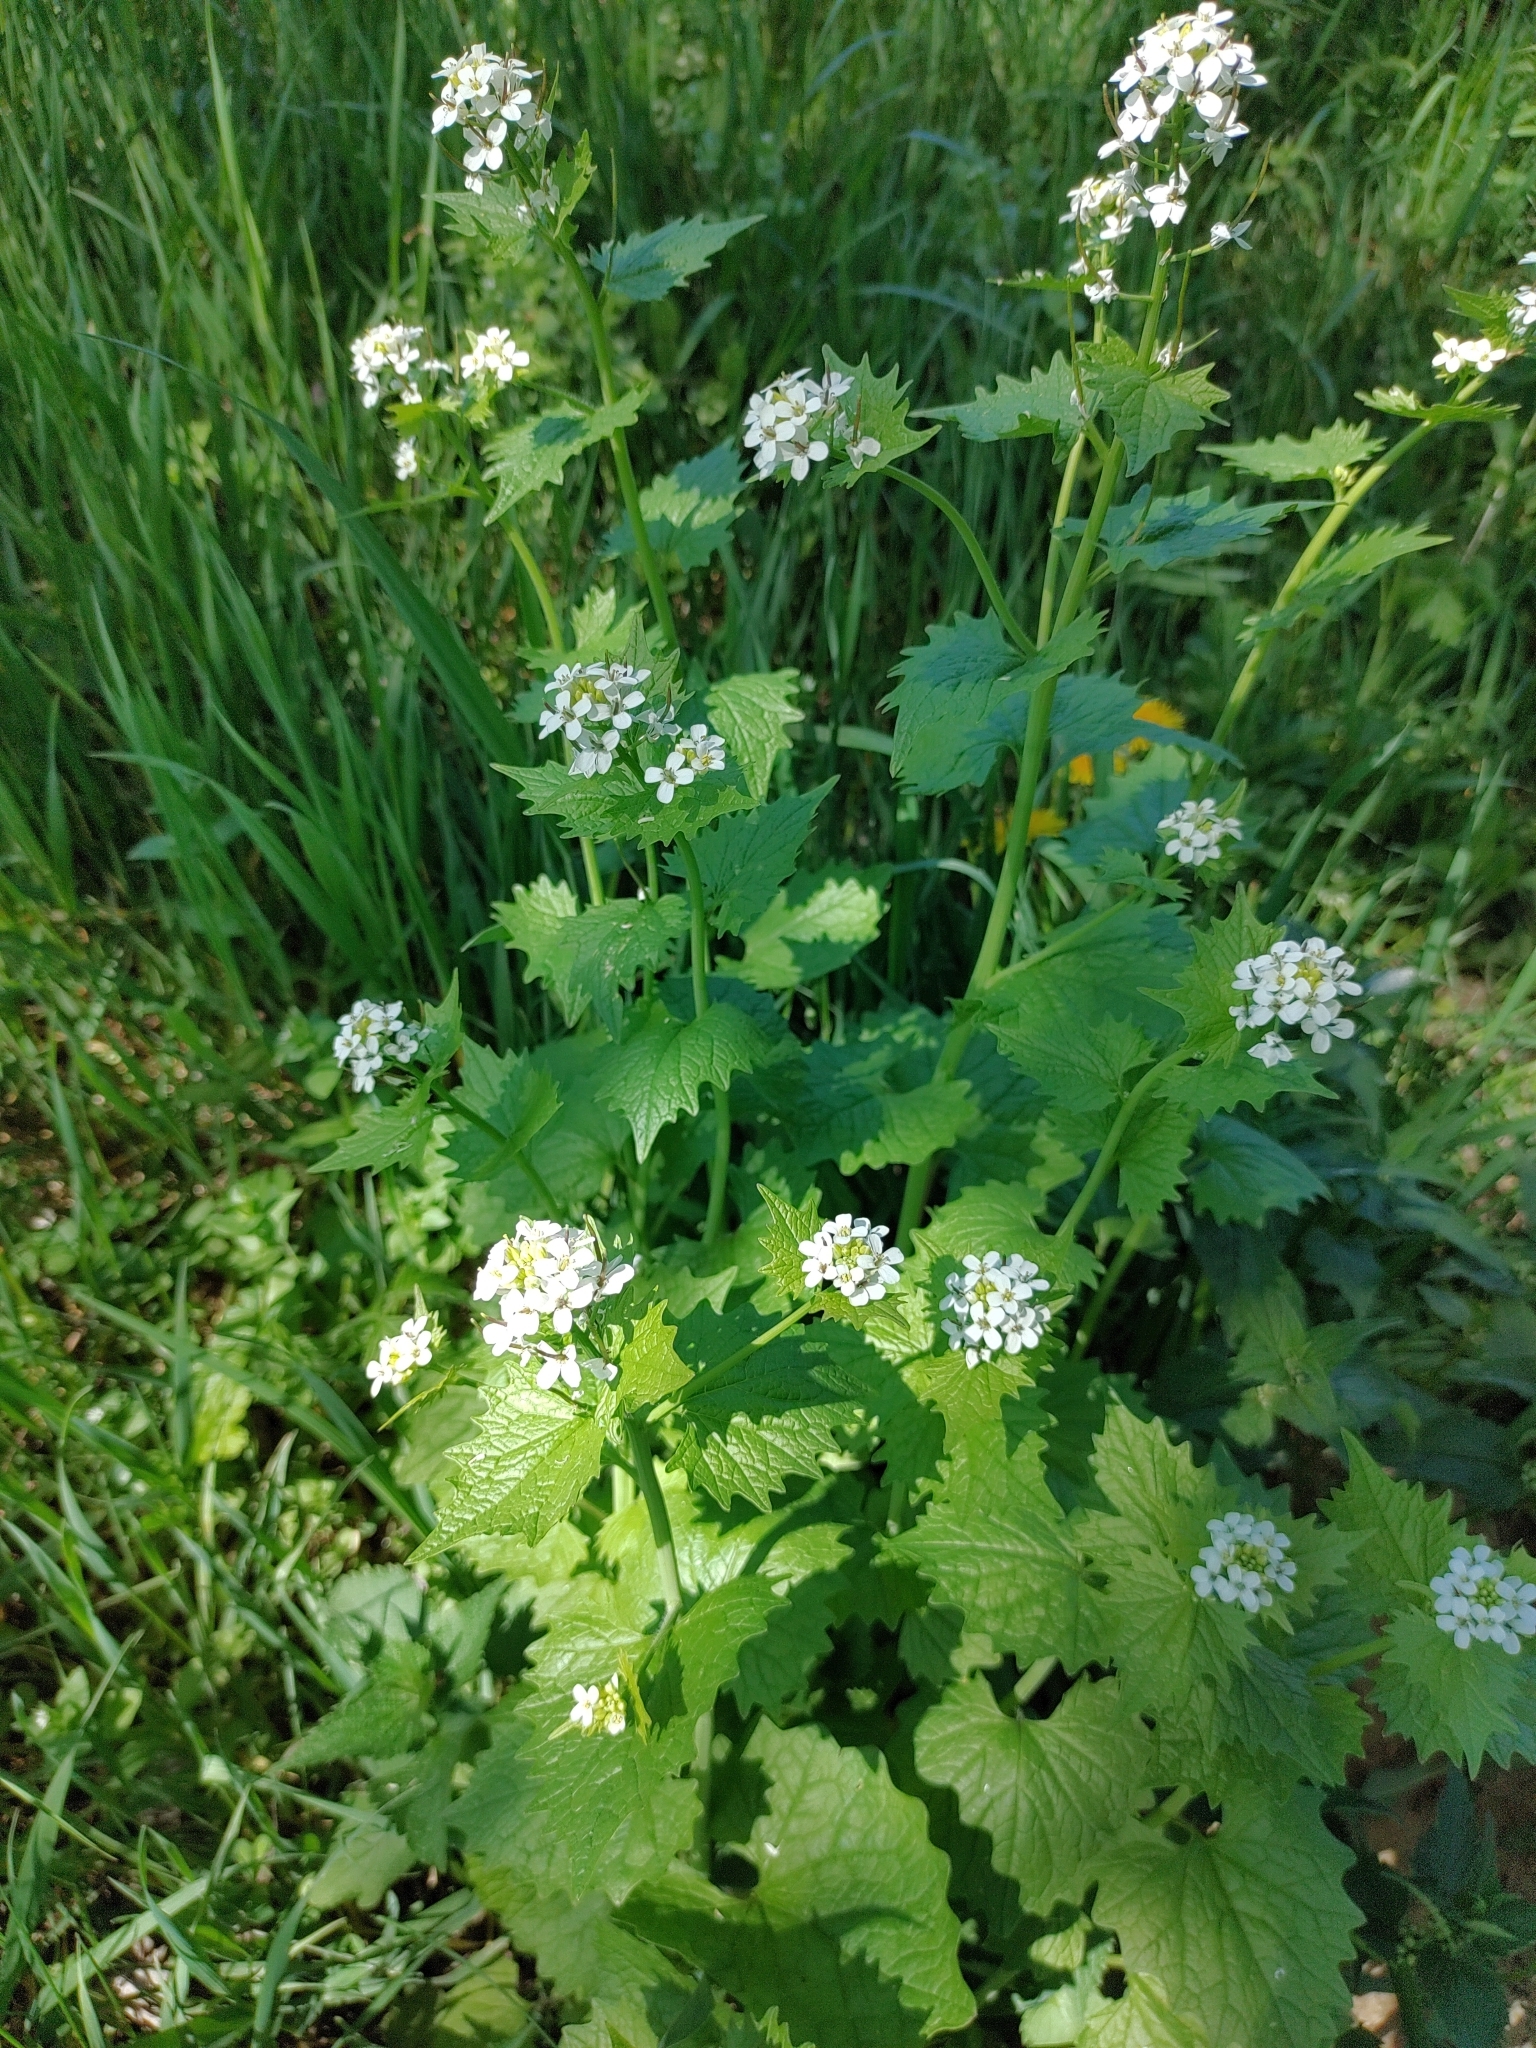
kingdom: Plantae
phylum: Tracheophyta
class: Magnoliopsida
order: Brassicales
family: Brassicaceae
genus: Alliaria
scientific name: Alliaria petiolata
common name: Garlic mustard
